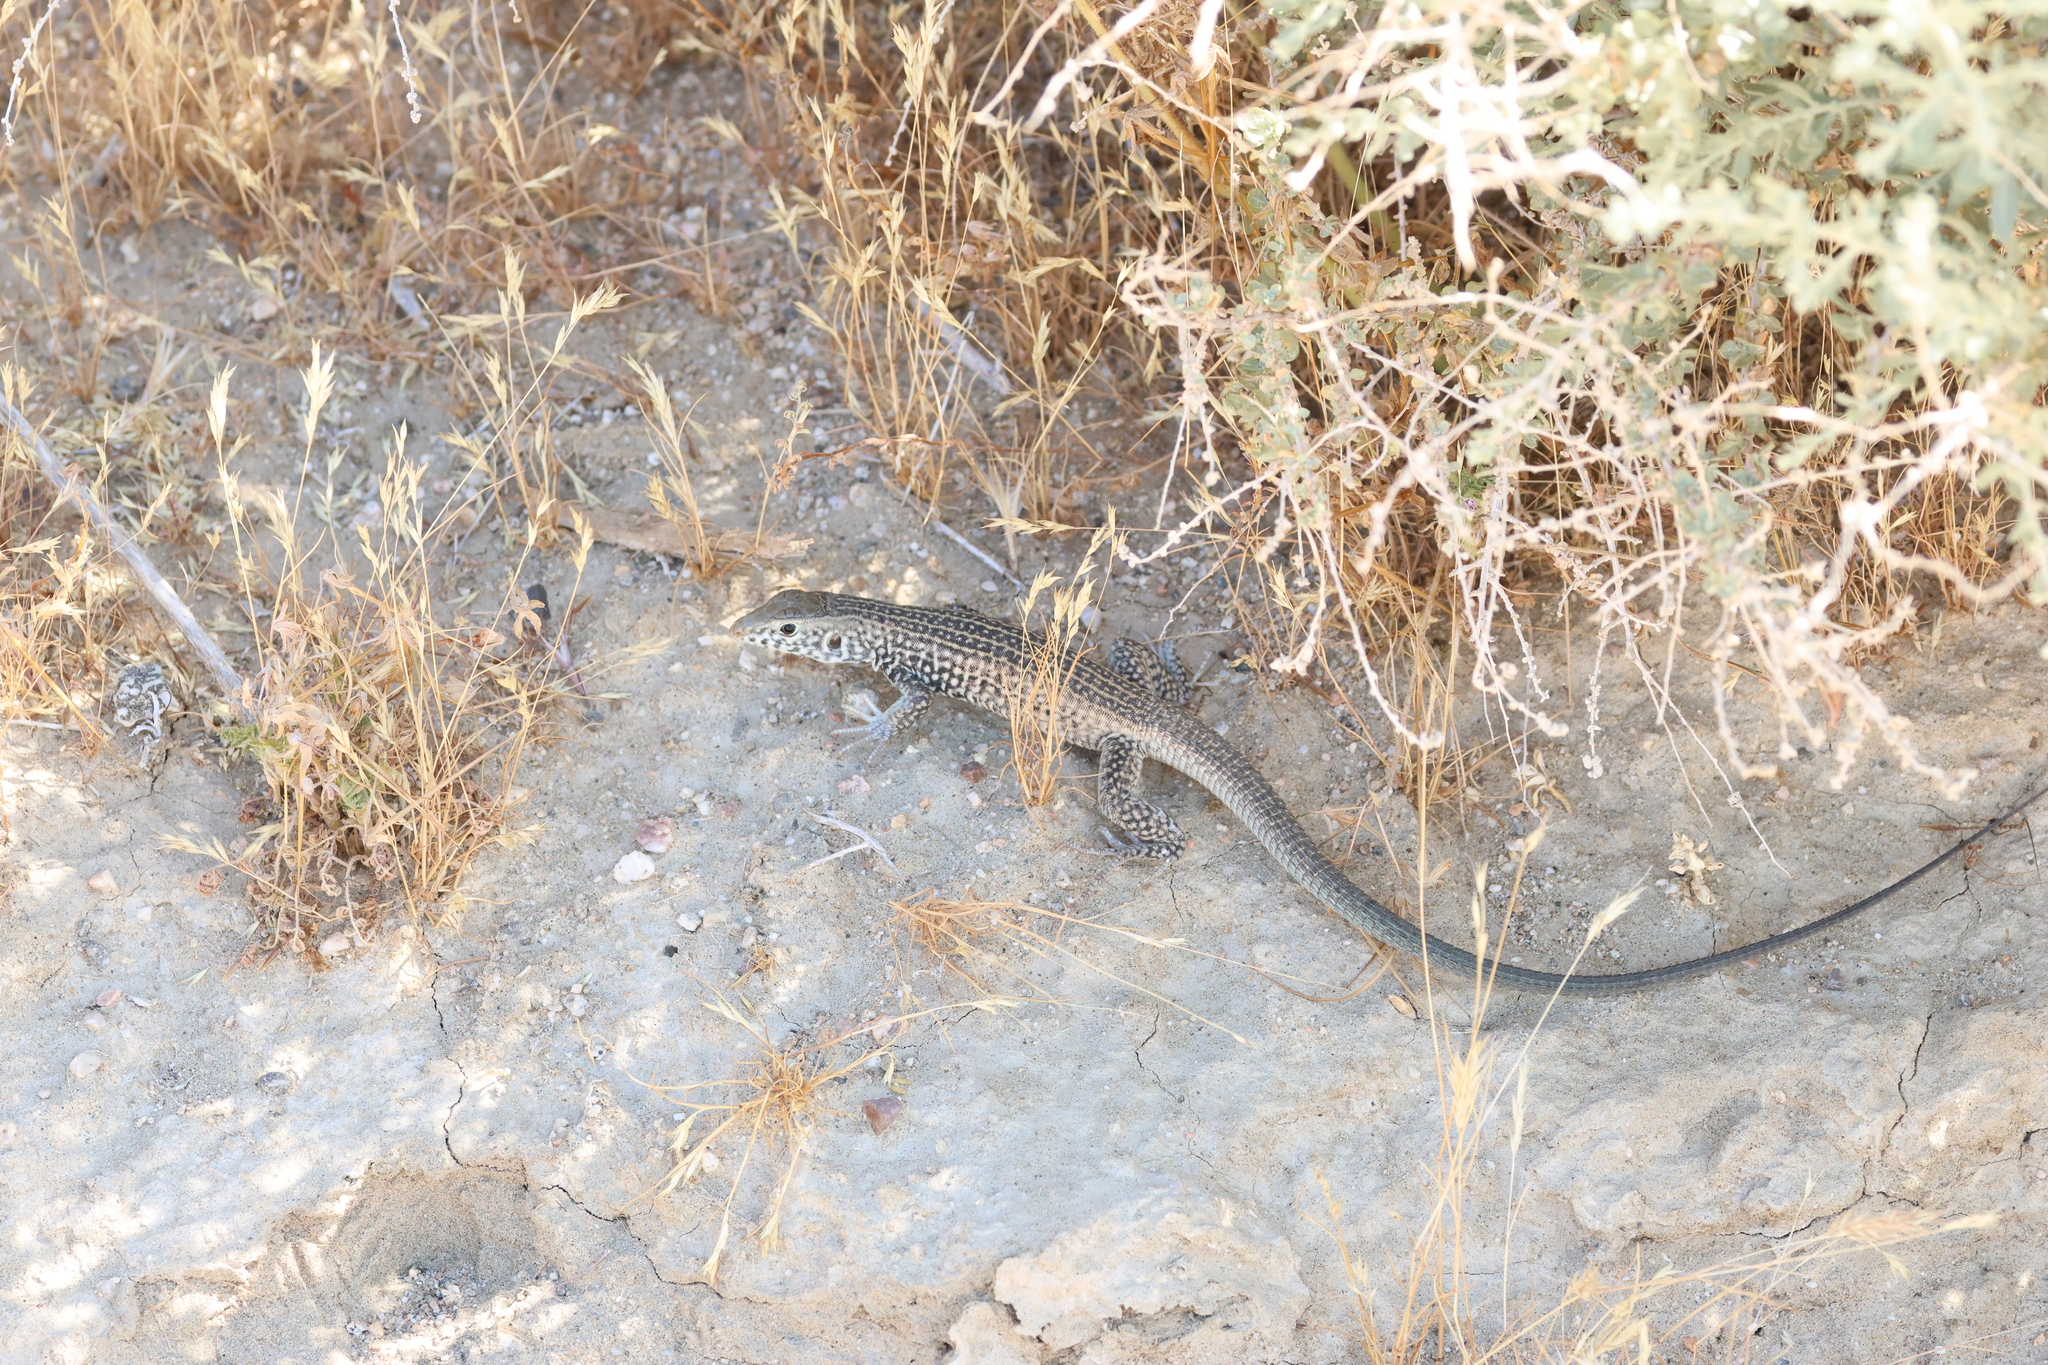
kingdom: Animalia
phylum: Chordata
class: Squamata
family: Teiidae
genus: Aspidoscelis
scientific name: Aspidoscelis tigris
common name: Tiger whiptail
